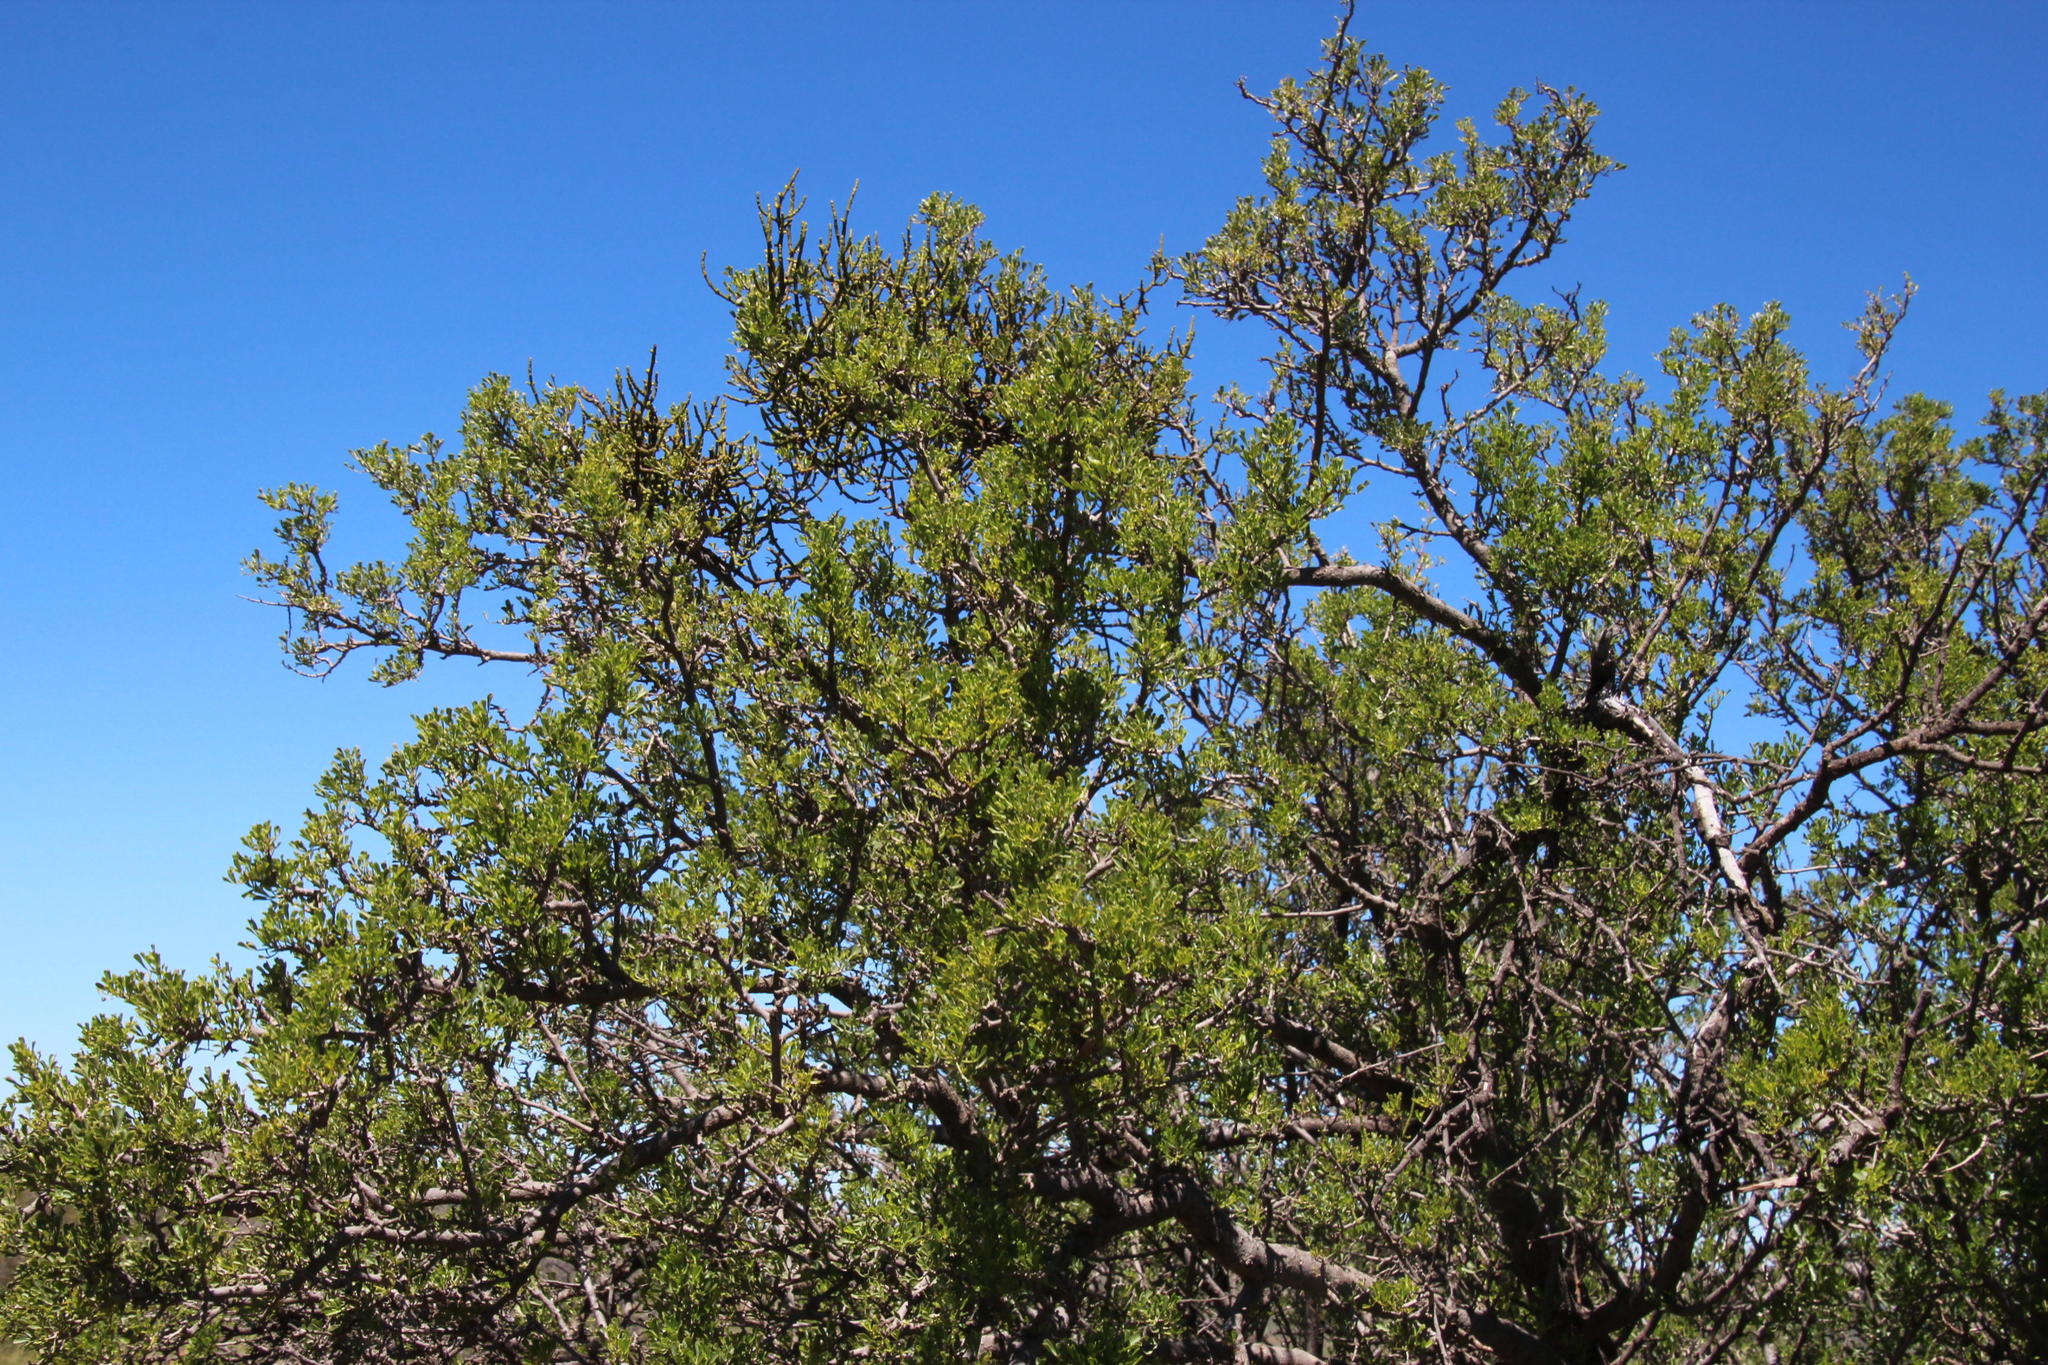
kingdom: Plantae
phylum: Tracheophyta
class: Magnoliopsida
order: Santalales
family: Viscaceae
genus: Viscum
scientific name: Viscum capense
